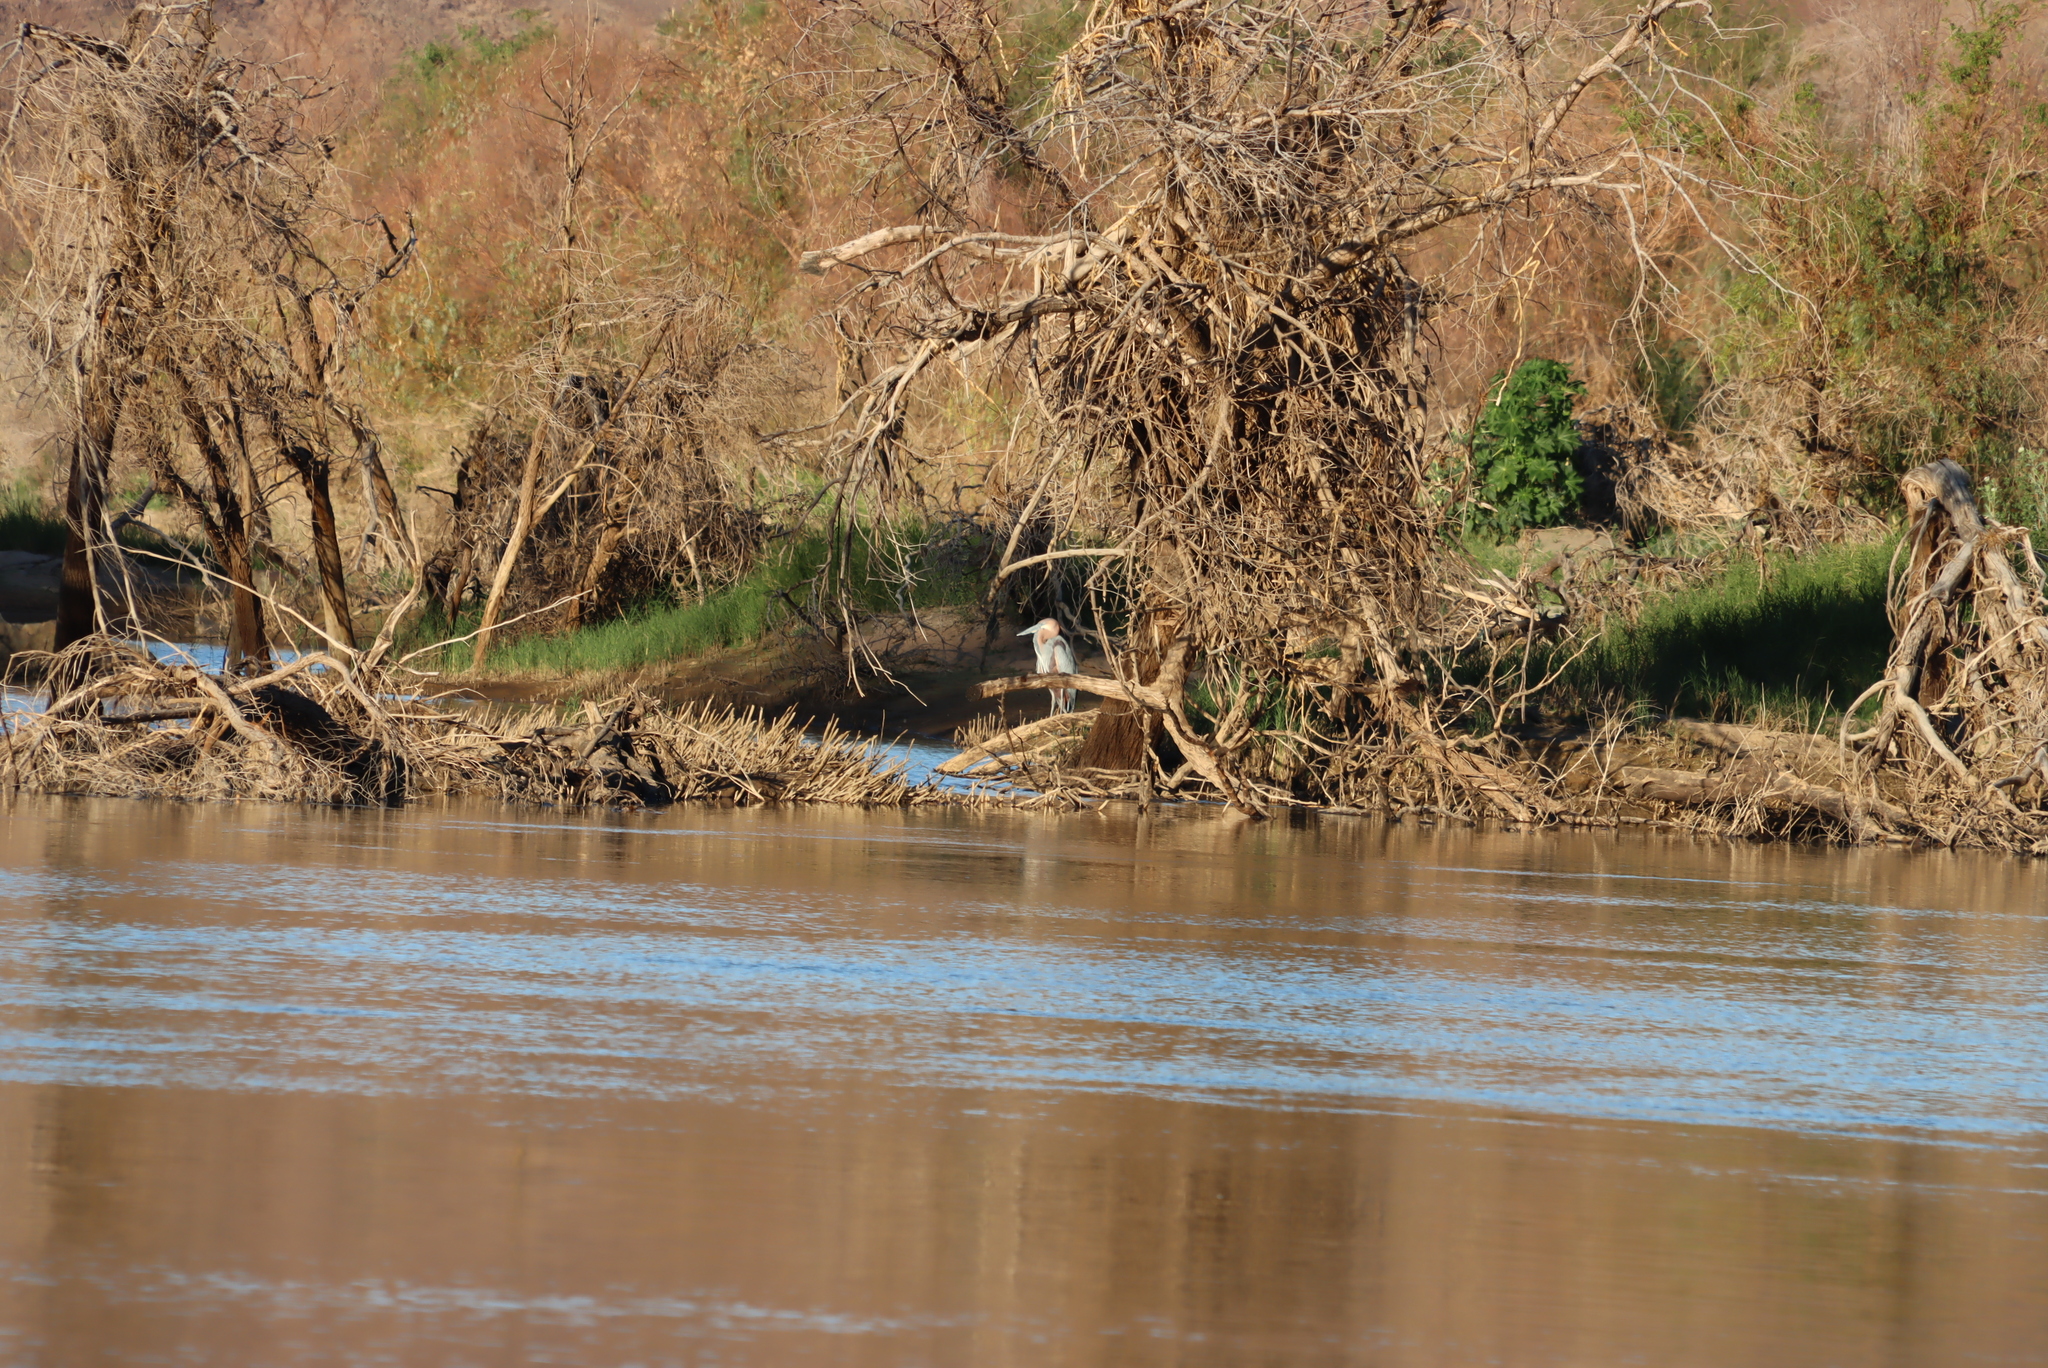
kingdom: Animalia
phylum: Chordata
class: Aves
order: Pelecaniformes
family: Ardeidae
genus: Ardea
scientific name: Ardea goliath
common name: Goliath heron
